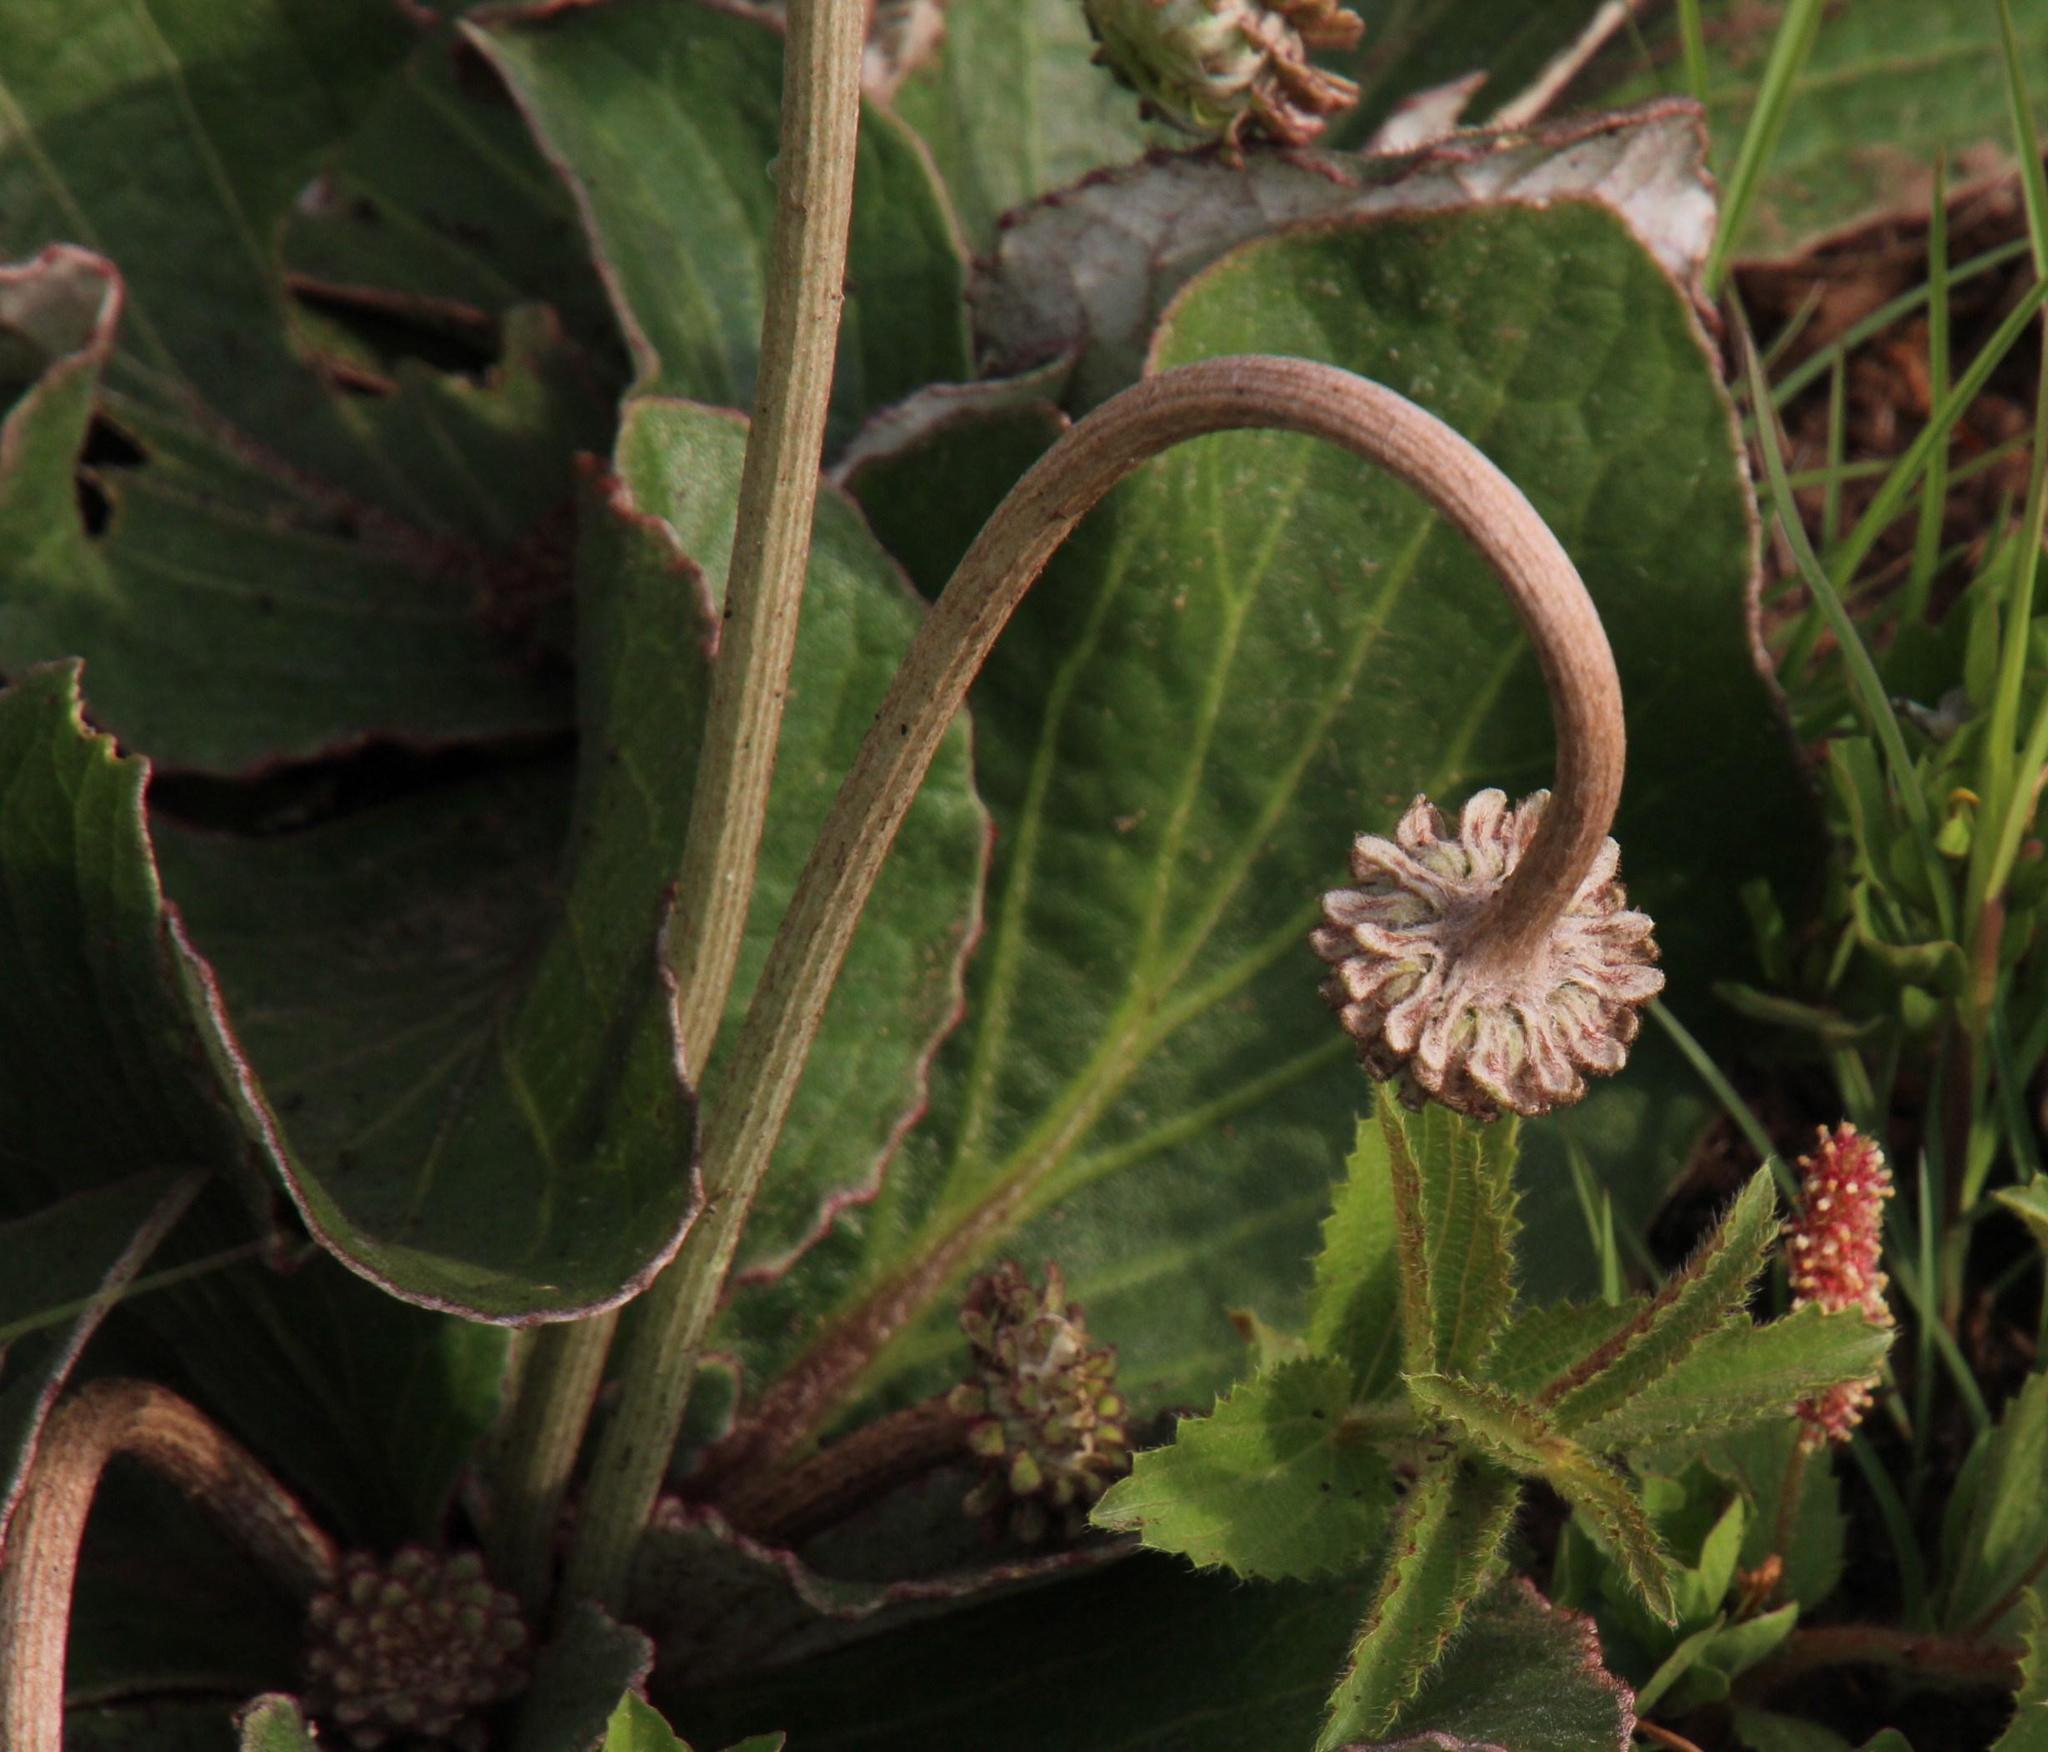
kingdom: Plantae
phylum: Tracheophyta
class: Magnoliopsida
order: Asterales
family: Asteraceae
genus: Haplocarpha
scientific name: Haplocarpha scaposa
